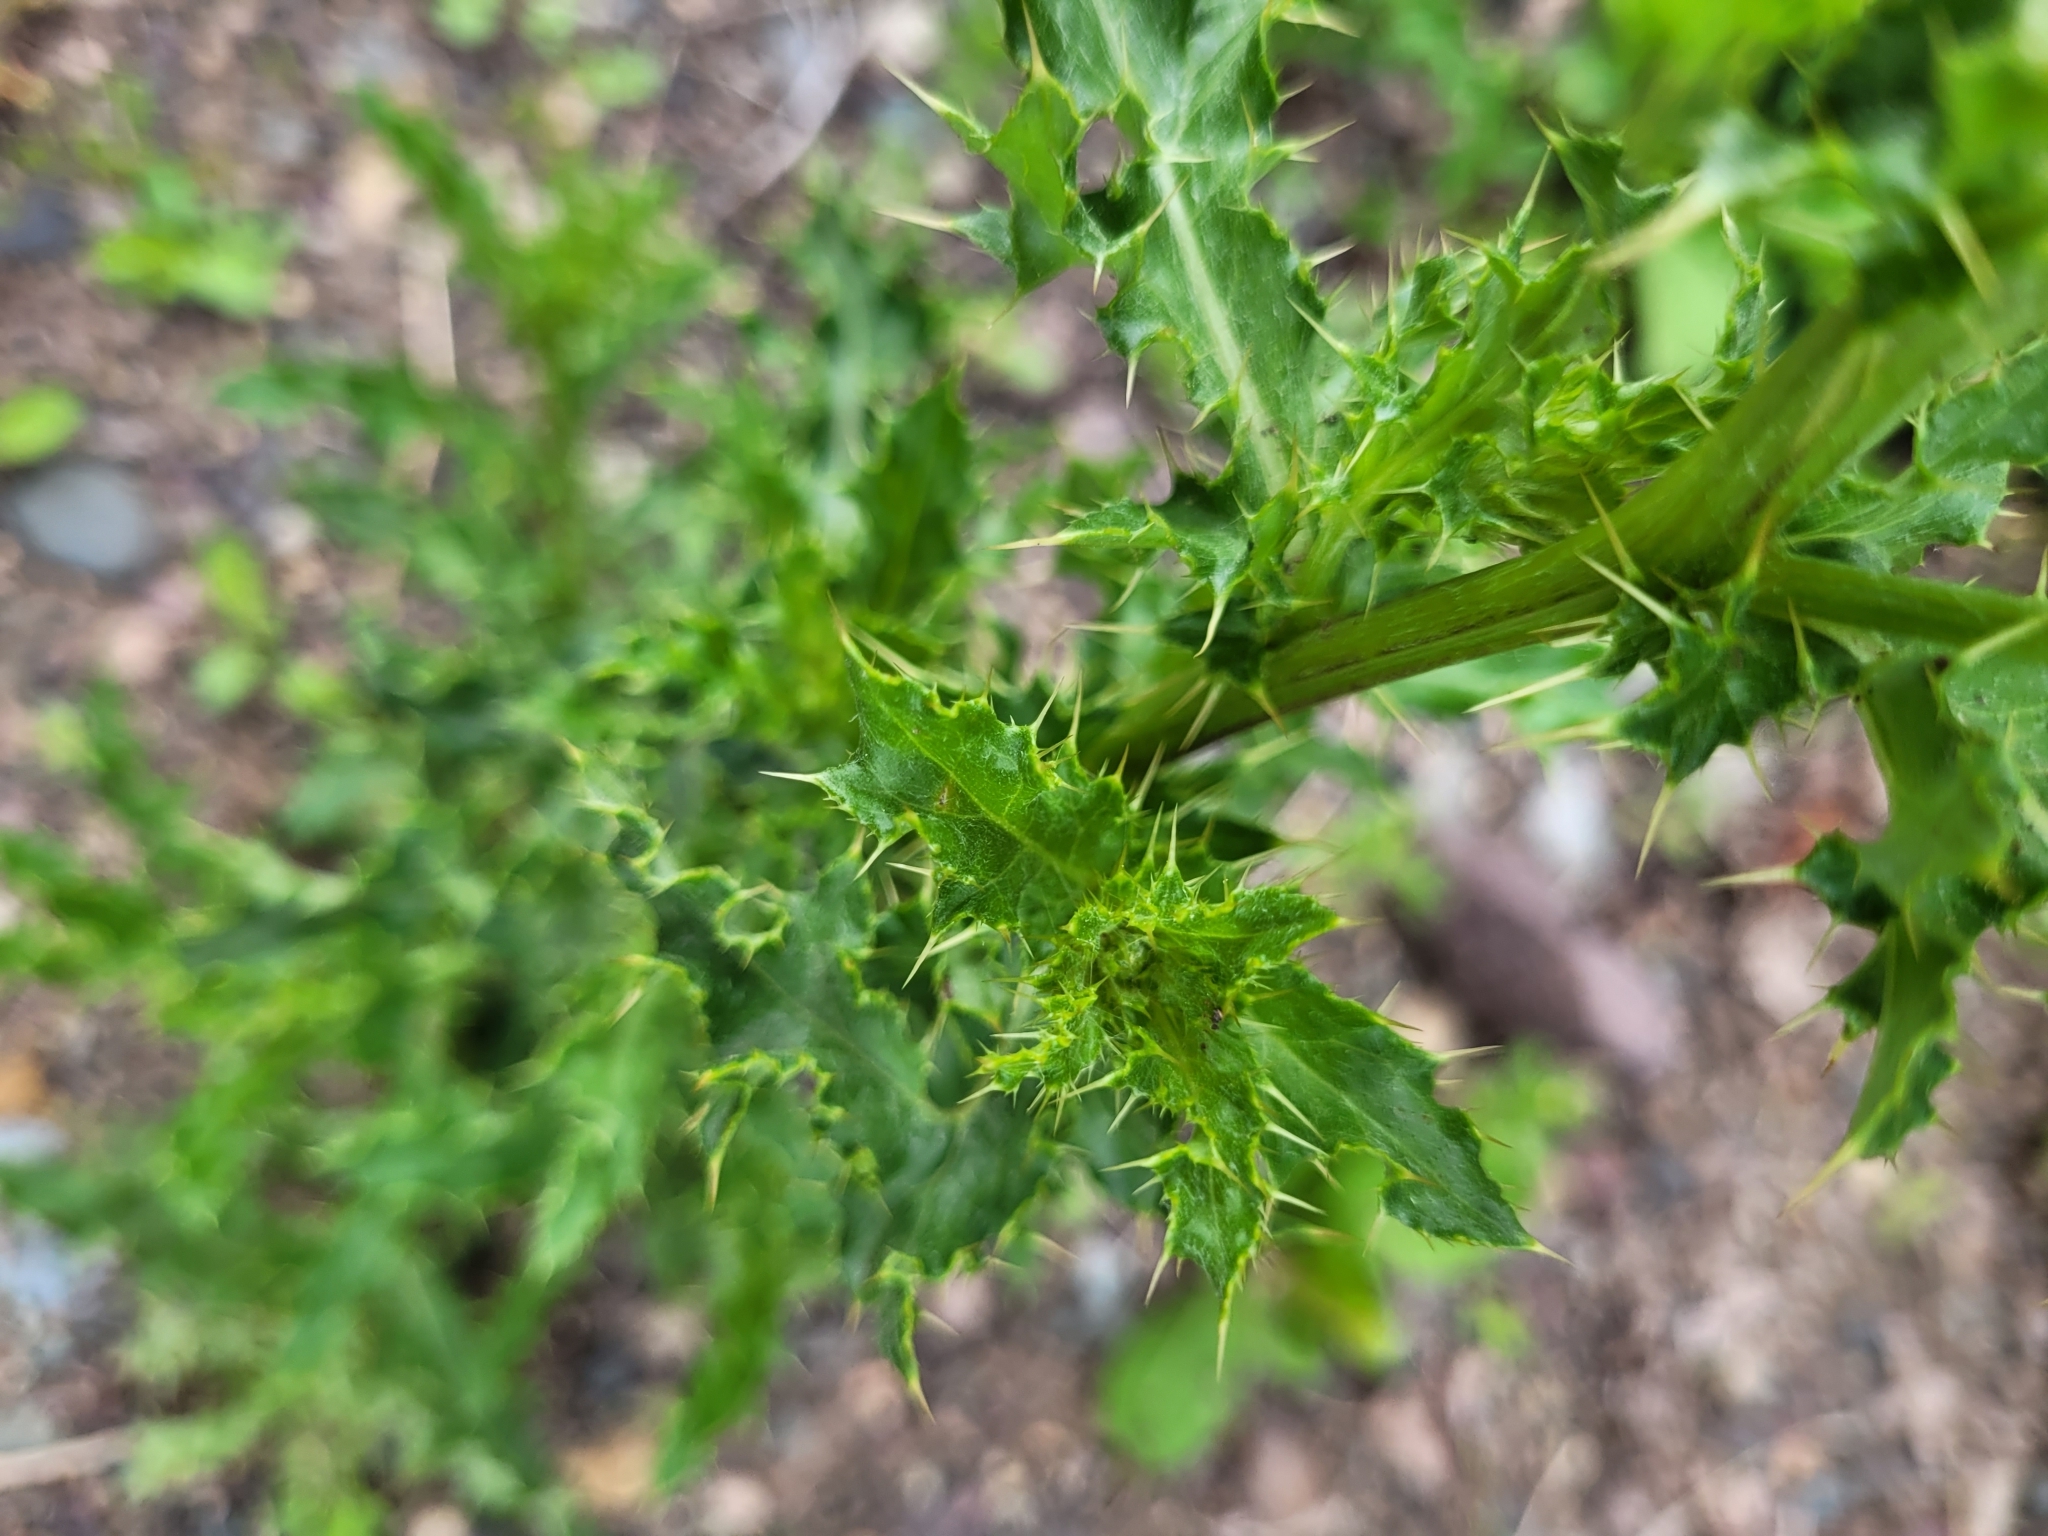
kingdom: Plantae
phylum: Tracheophyta
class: Magnoliopsida
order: Asterales
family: Asteraceae
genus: Cirsium
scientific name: Cirsium arvense
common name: Creeping thistle
